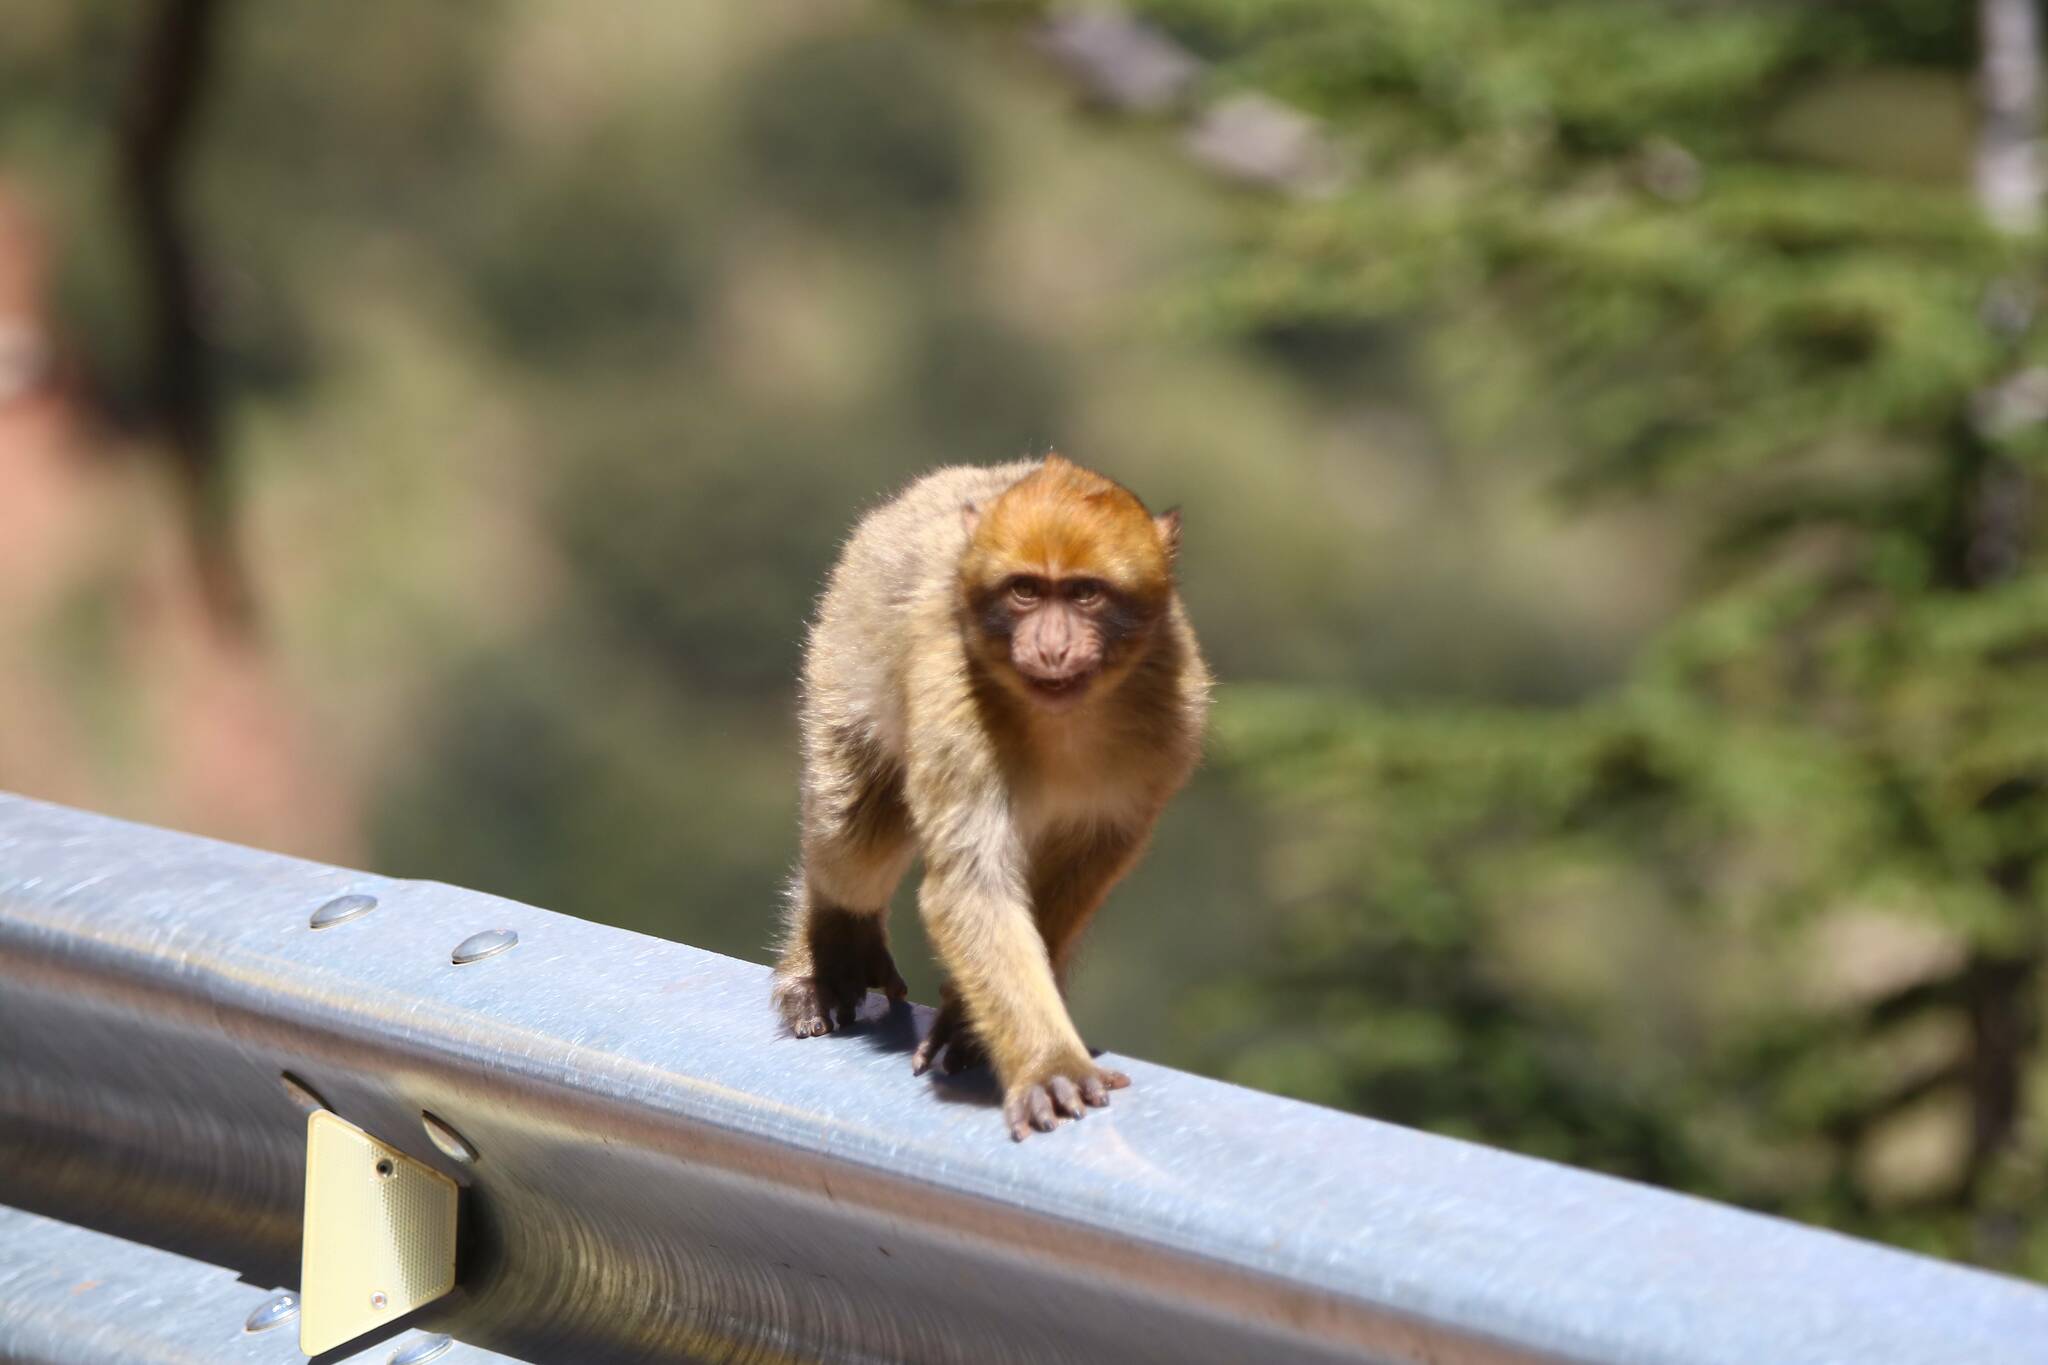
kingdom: Animalia
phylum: Chordata
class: Mammalia
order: Primates
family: Cercopithecidae
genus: Macaca
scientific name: Macaca sylvanus
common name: Barbary macaque
